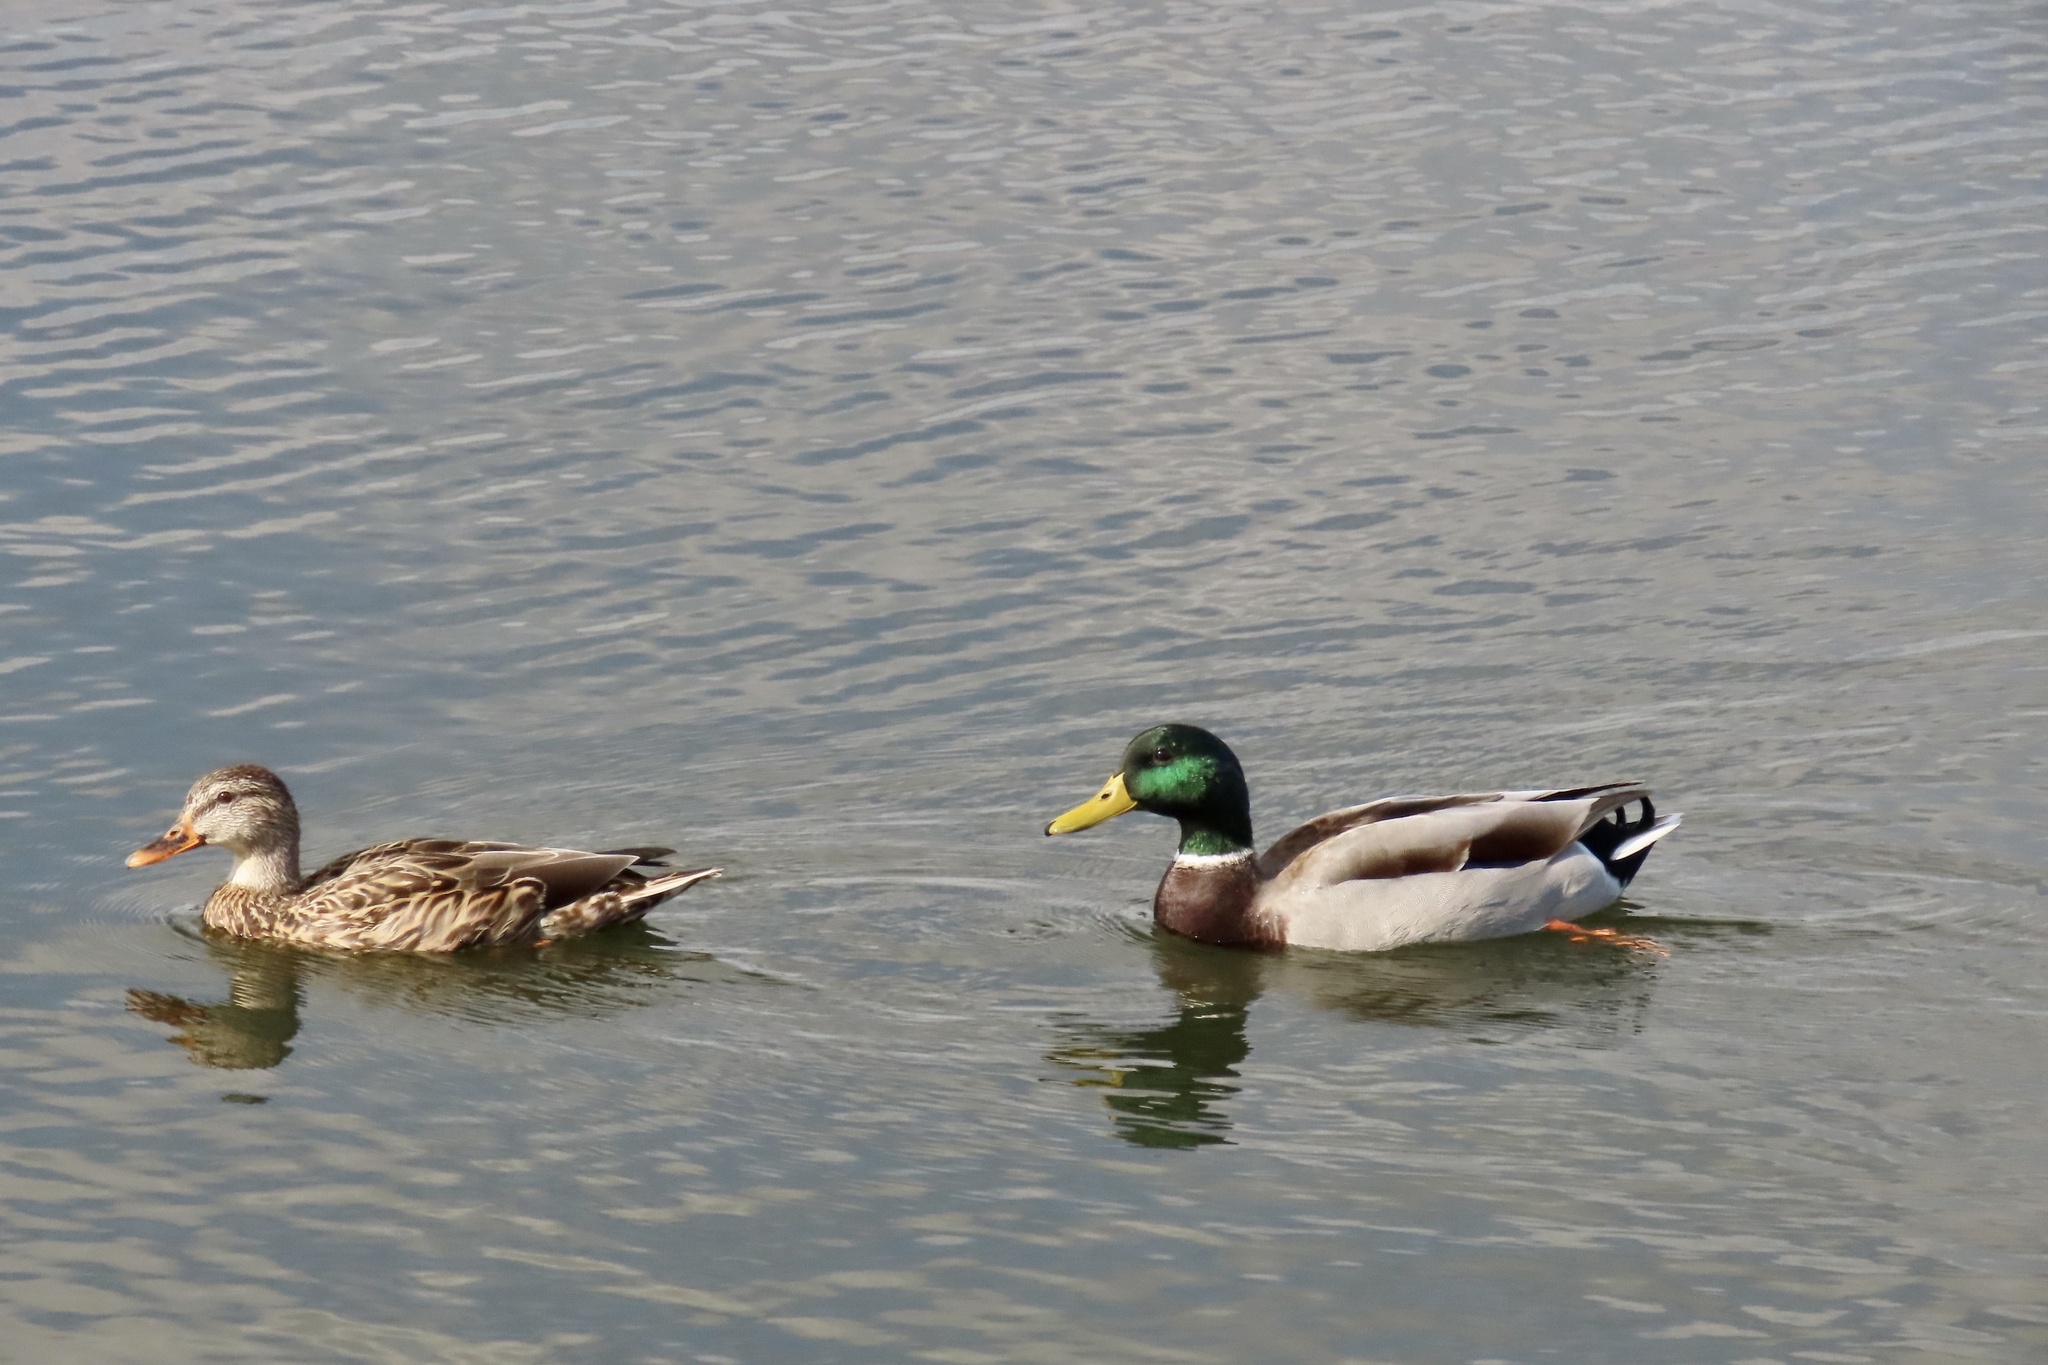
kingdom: Animalia
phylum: Chordata
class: Aves
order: Anseriformes
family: Anatidae
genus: Anas
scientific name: Anas platyrhynchos
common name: Mallard
